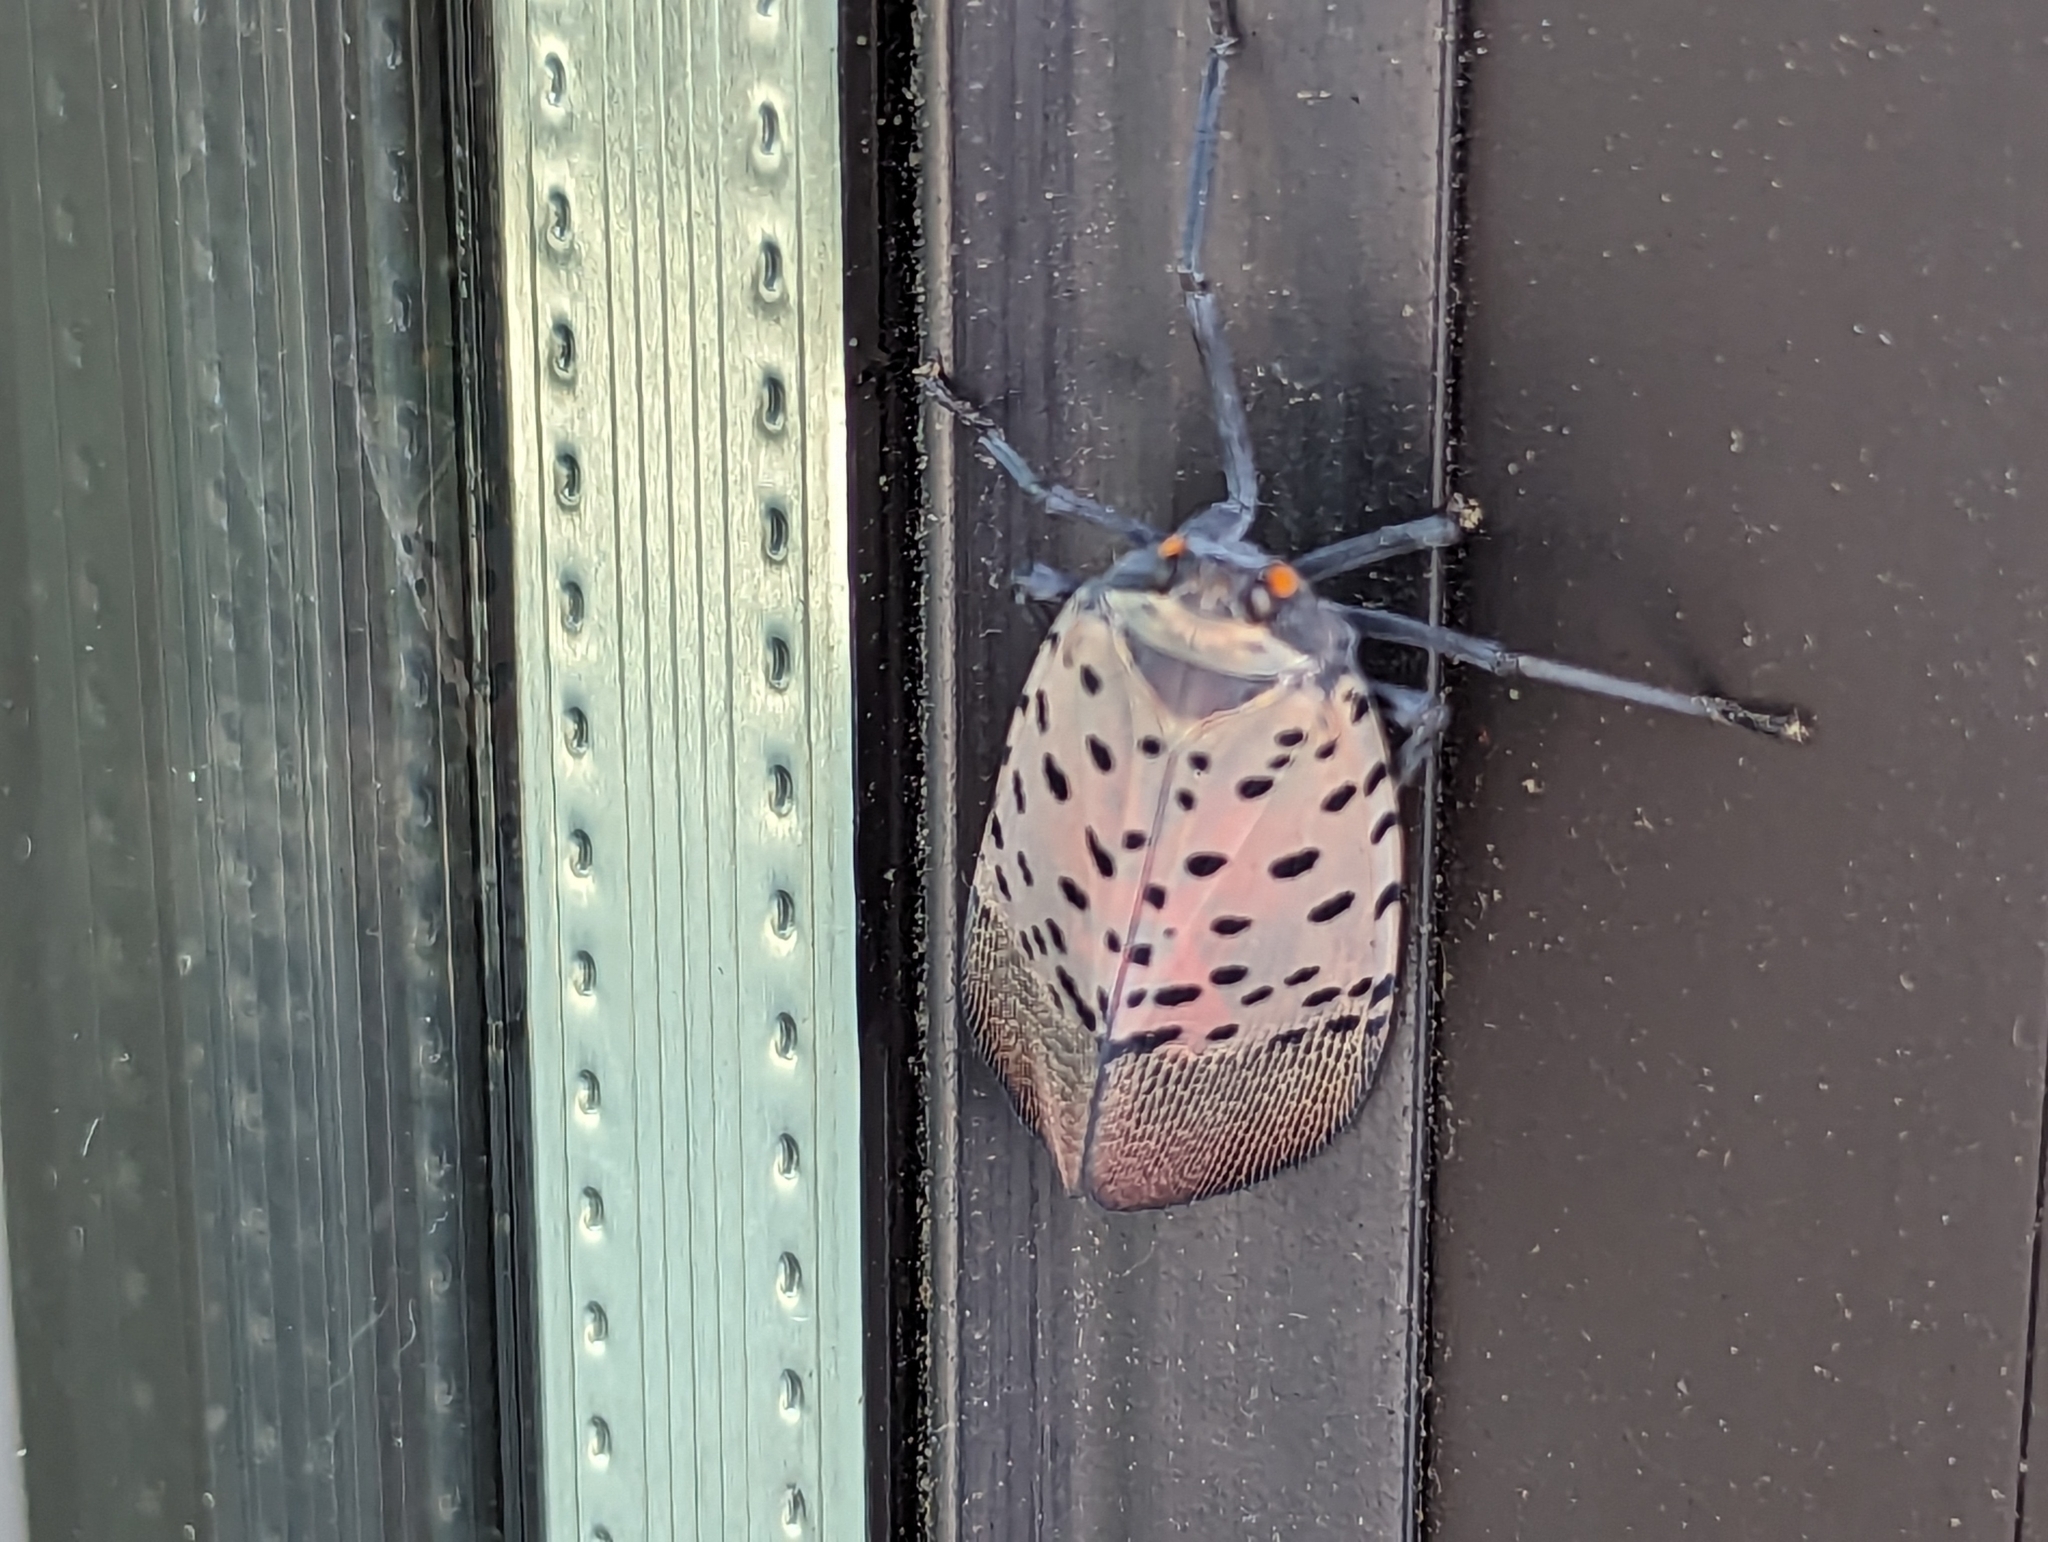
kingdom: Animalia
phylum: Arthropoda
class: Insecta
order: Hemiptera
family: Fulgoridae
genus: Lycorma
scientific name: Lycorma delicatula
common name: Spotted lanternfly
